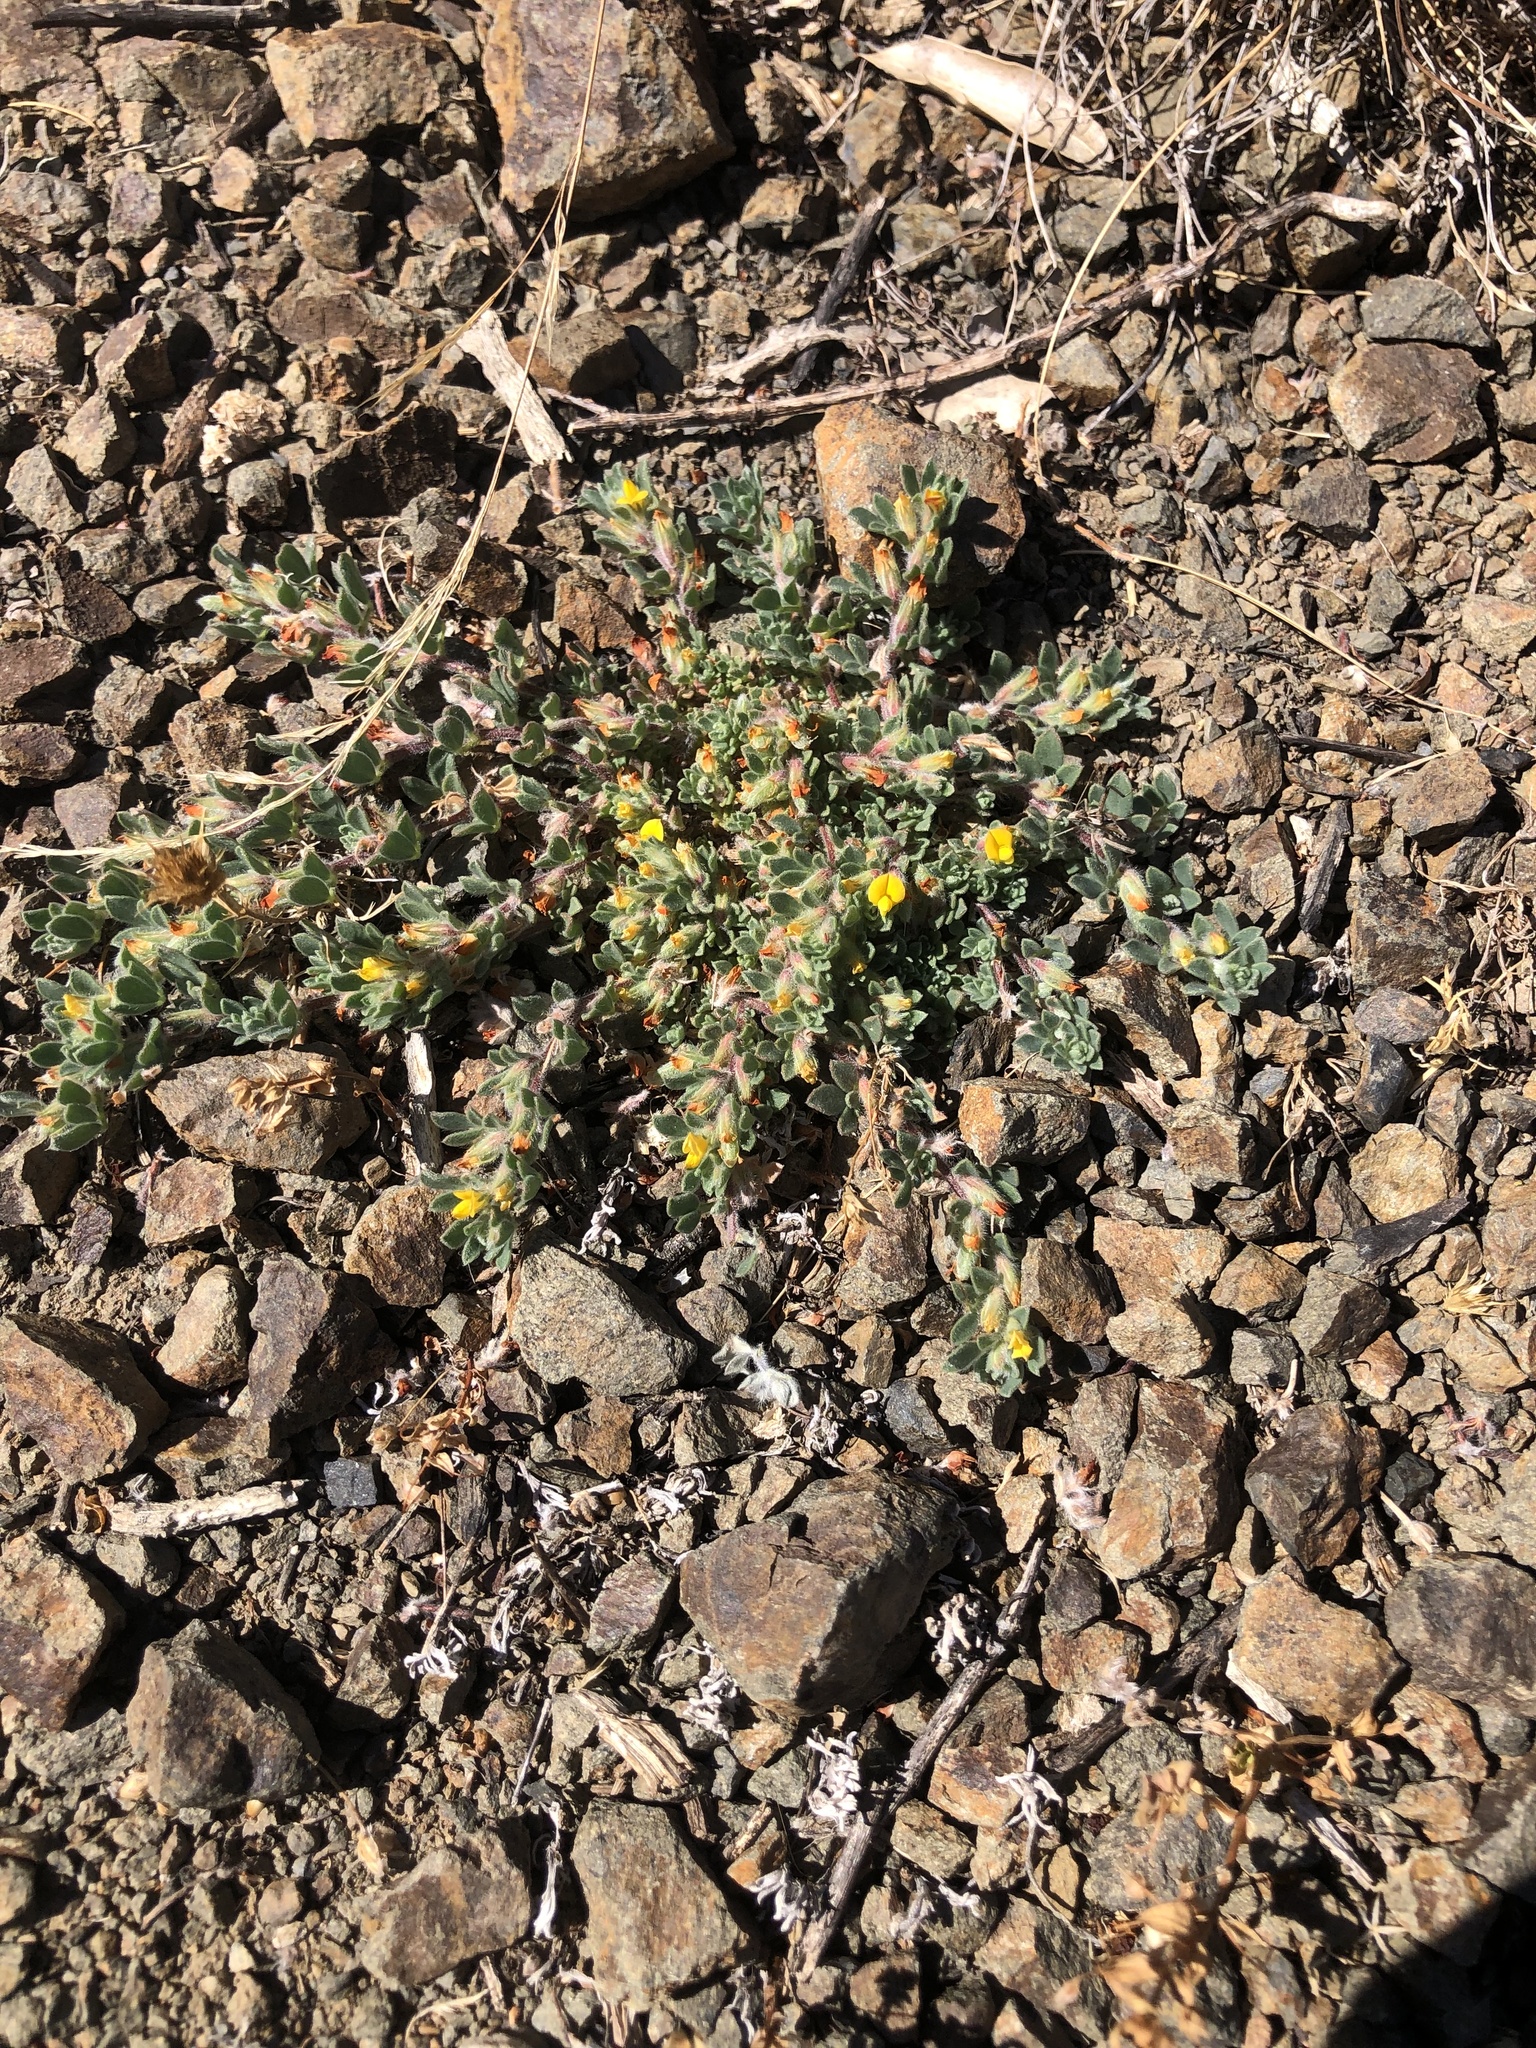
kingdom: Plantae
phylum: Tracheophyta
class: Magnoliopsida
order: Fabales
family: Fabaceae
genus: Acmispon
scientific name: Acmispon brachycarpus
